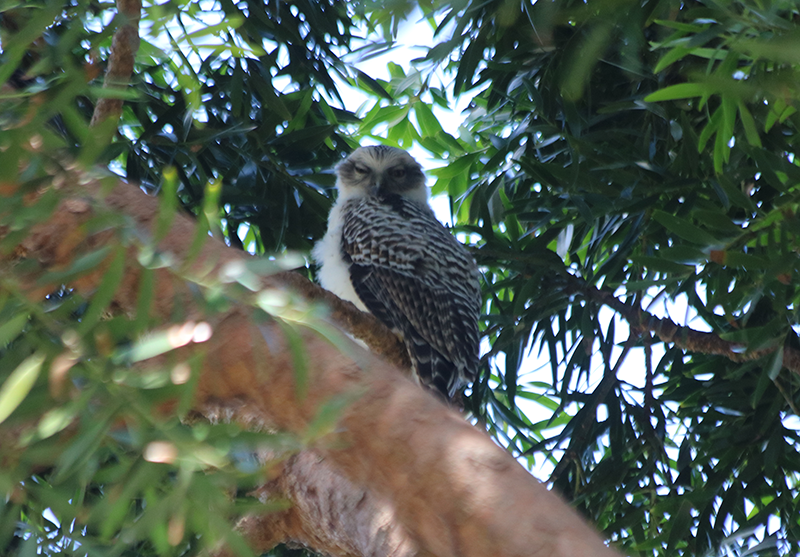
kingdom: Animalia
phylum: Chordata
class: Aves
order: Strigiformes
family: Strigidae
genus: Ninox
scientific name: Ninox strenua
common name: Powerful owl
